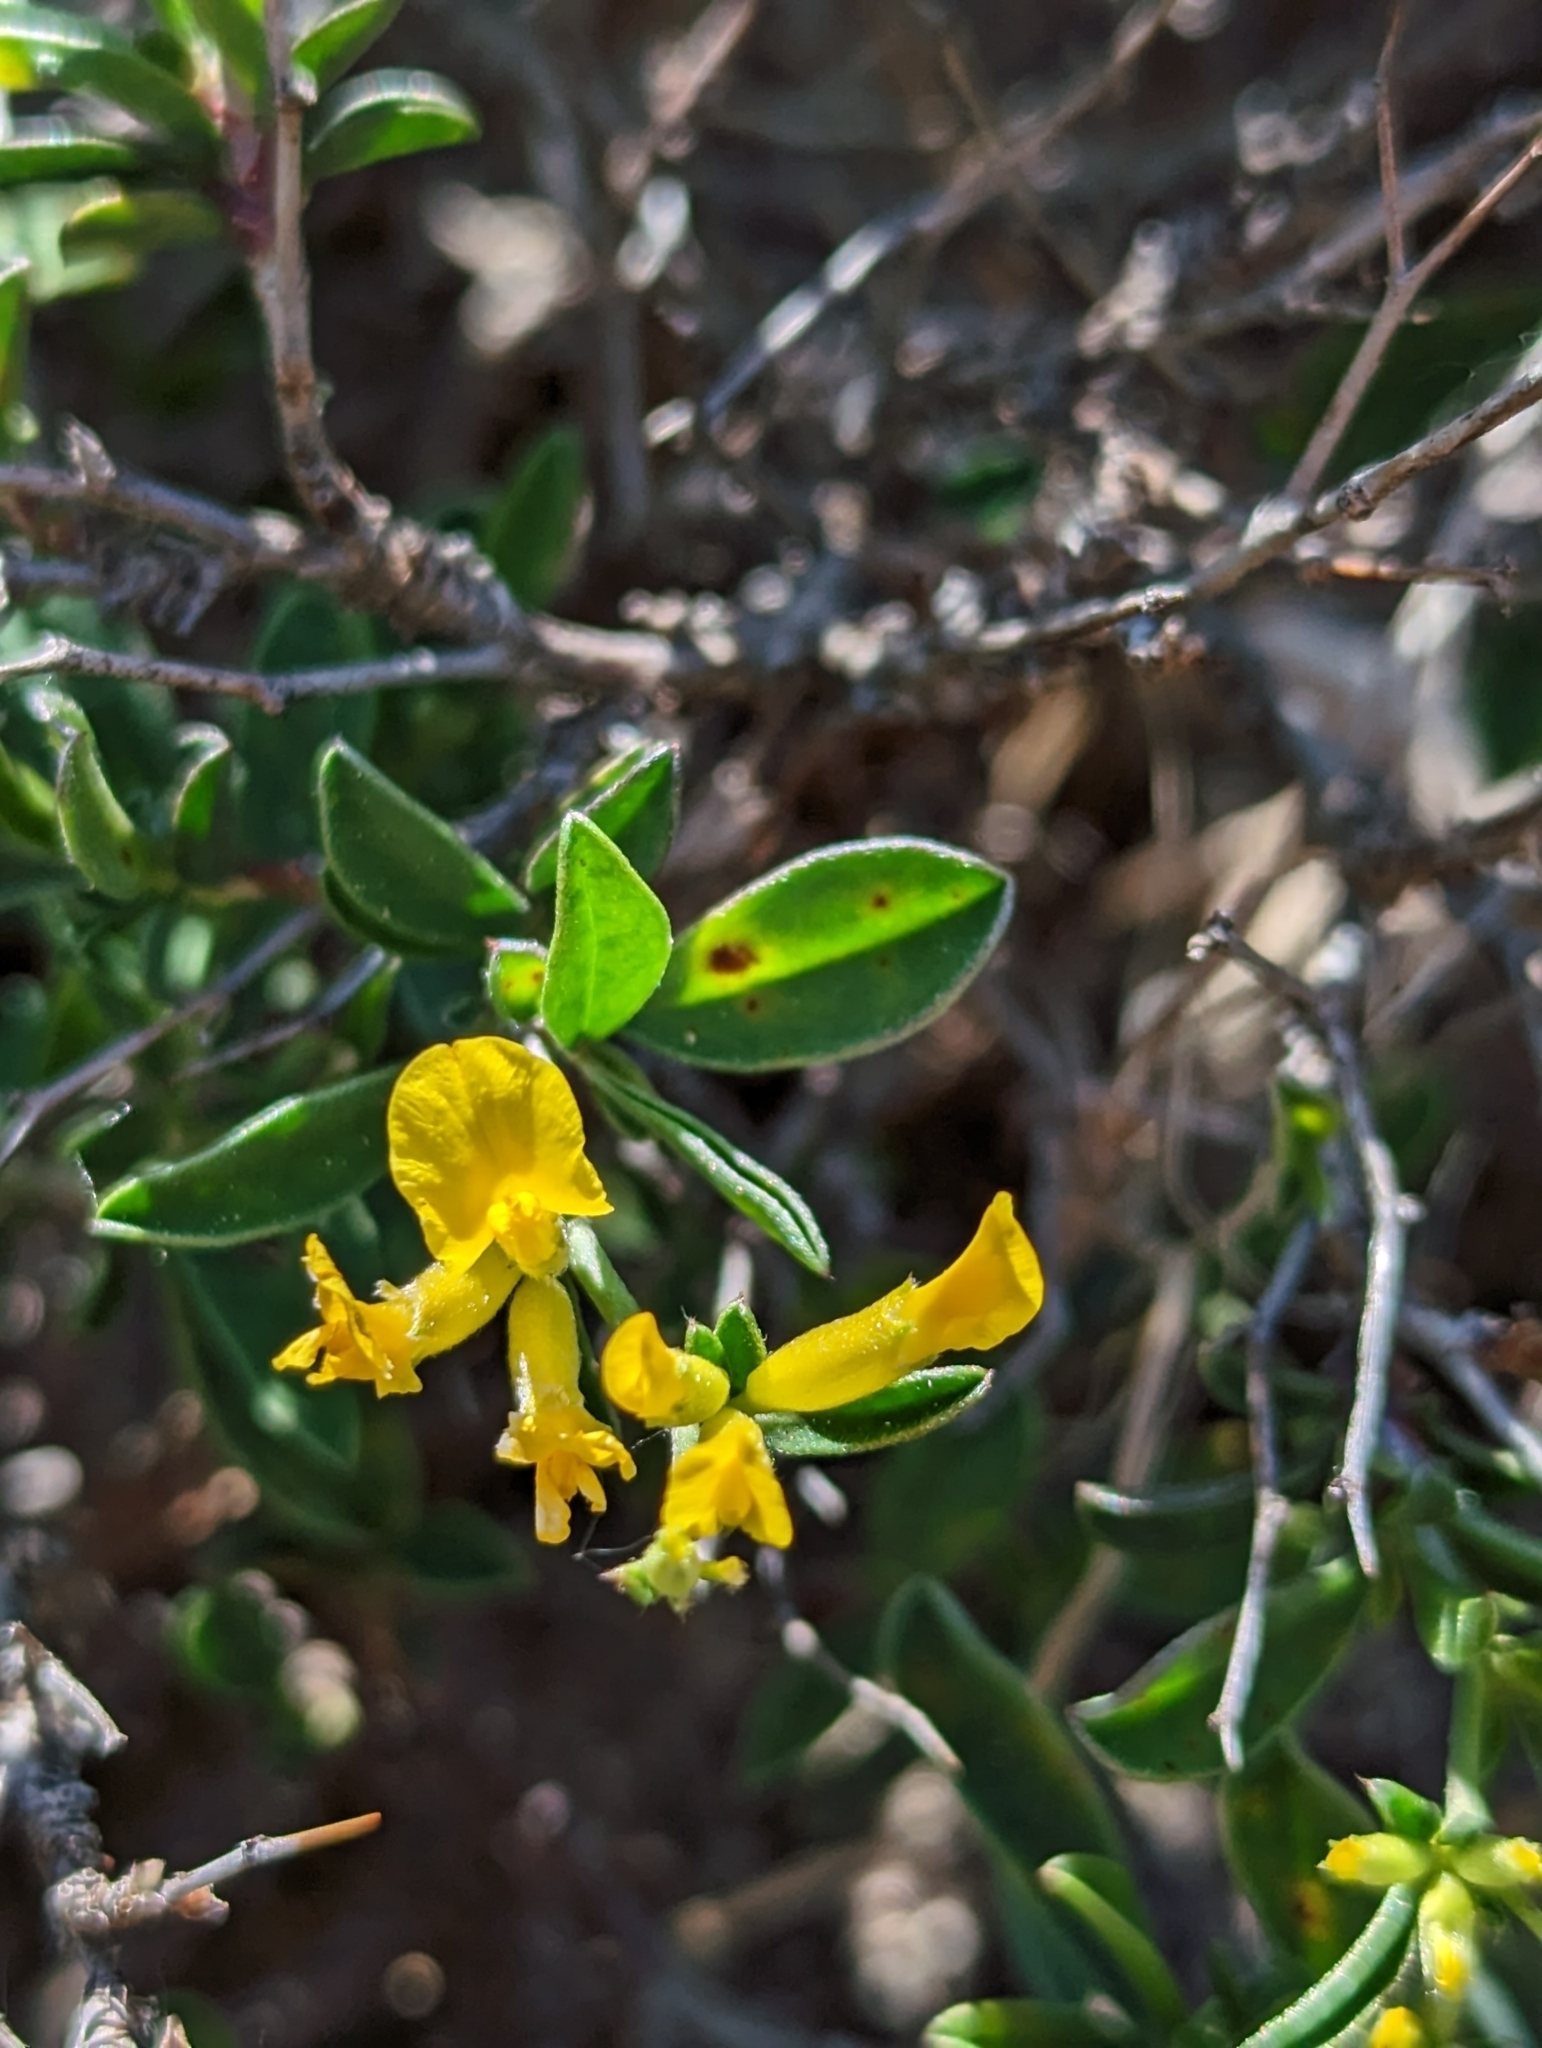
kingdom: Plantae
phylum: Tracheophyta
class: Magnoliopsida
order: Fabales
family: Fabaceae
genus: Anthyllis
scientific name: Anthyllis hermanniae
